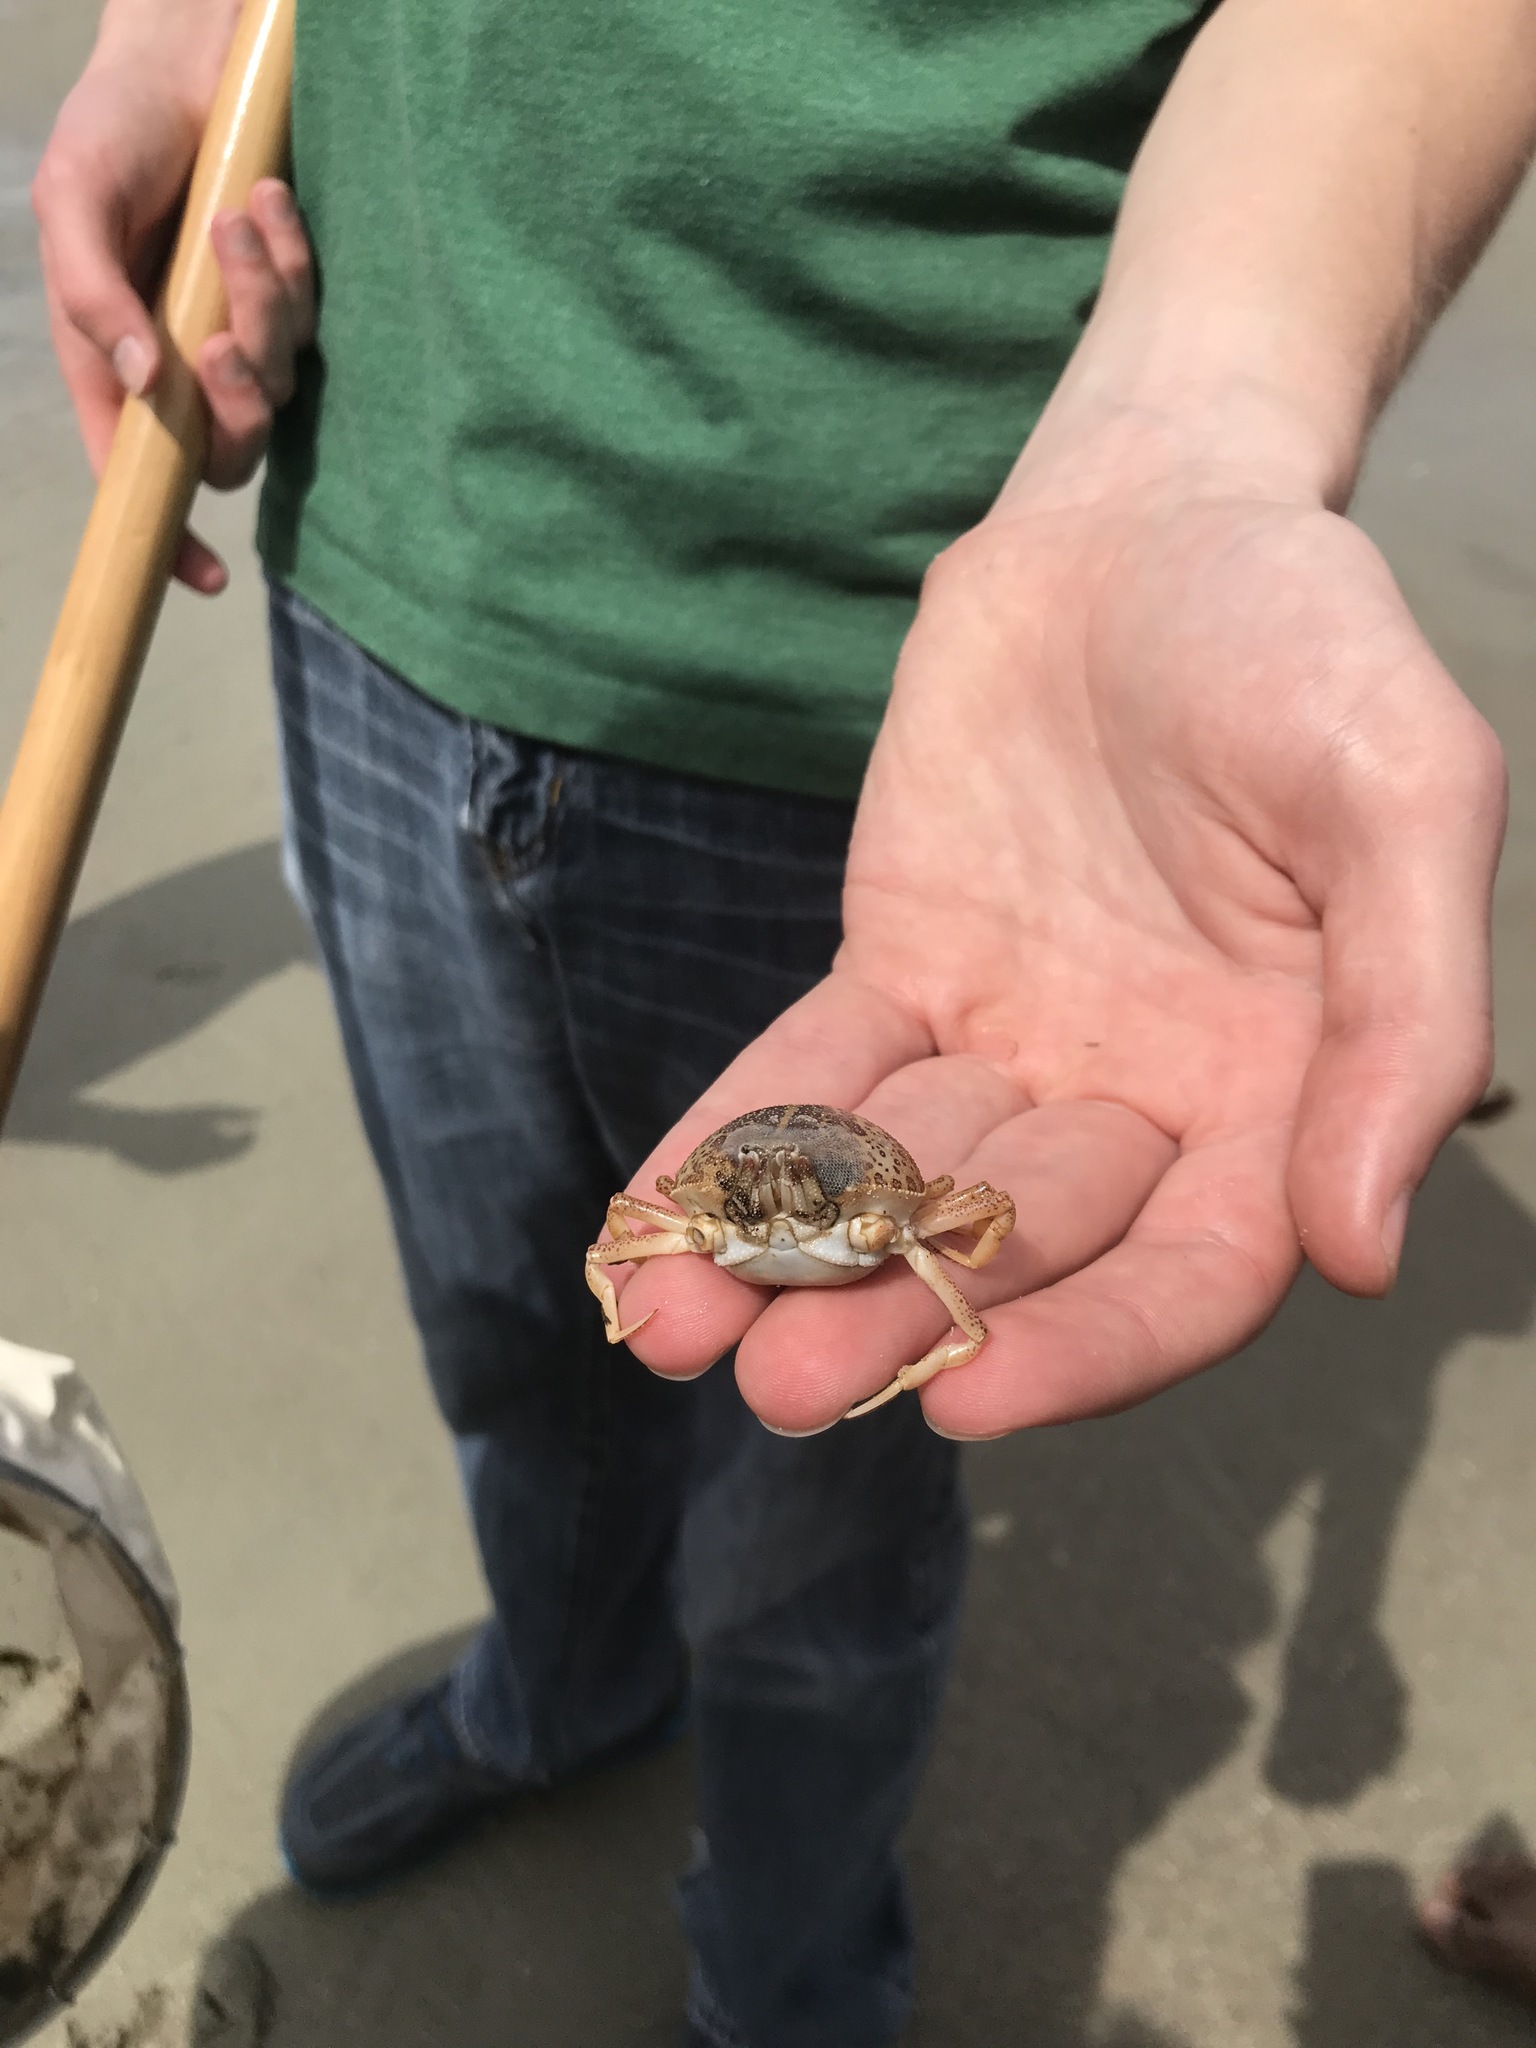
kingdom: Animalia
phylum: Arthropoda
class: Malacostraca
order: Decapoda
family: Leucosiidae
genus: Persephona
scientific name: Persephona aquilonaris
